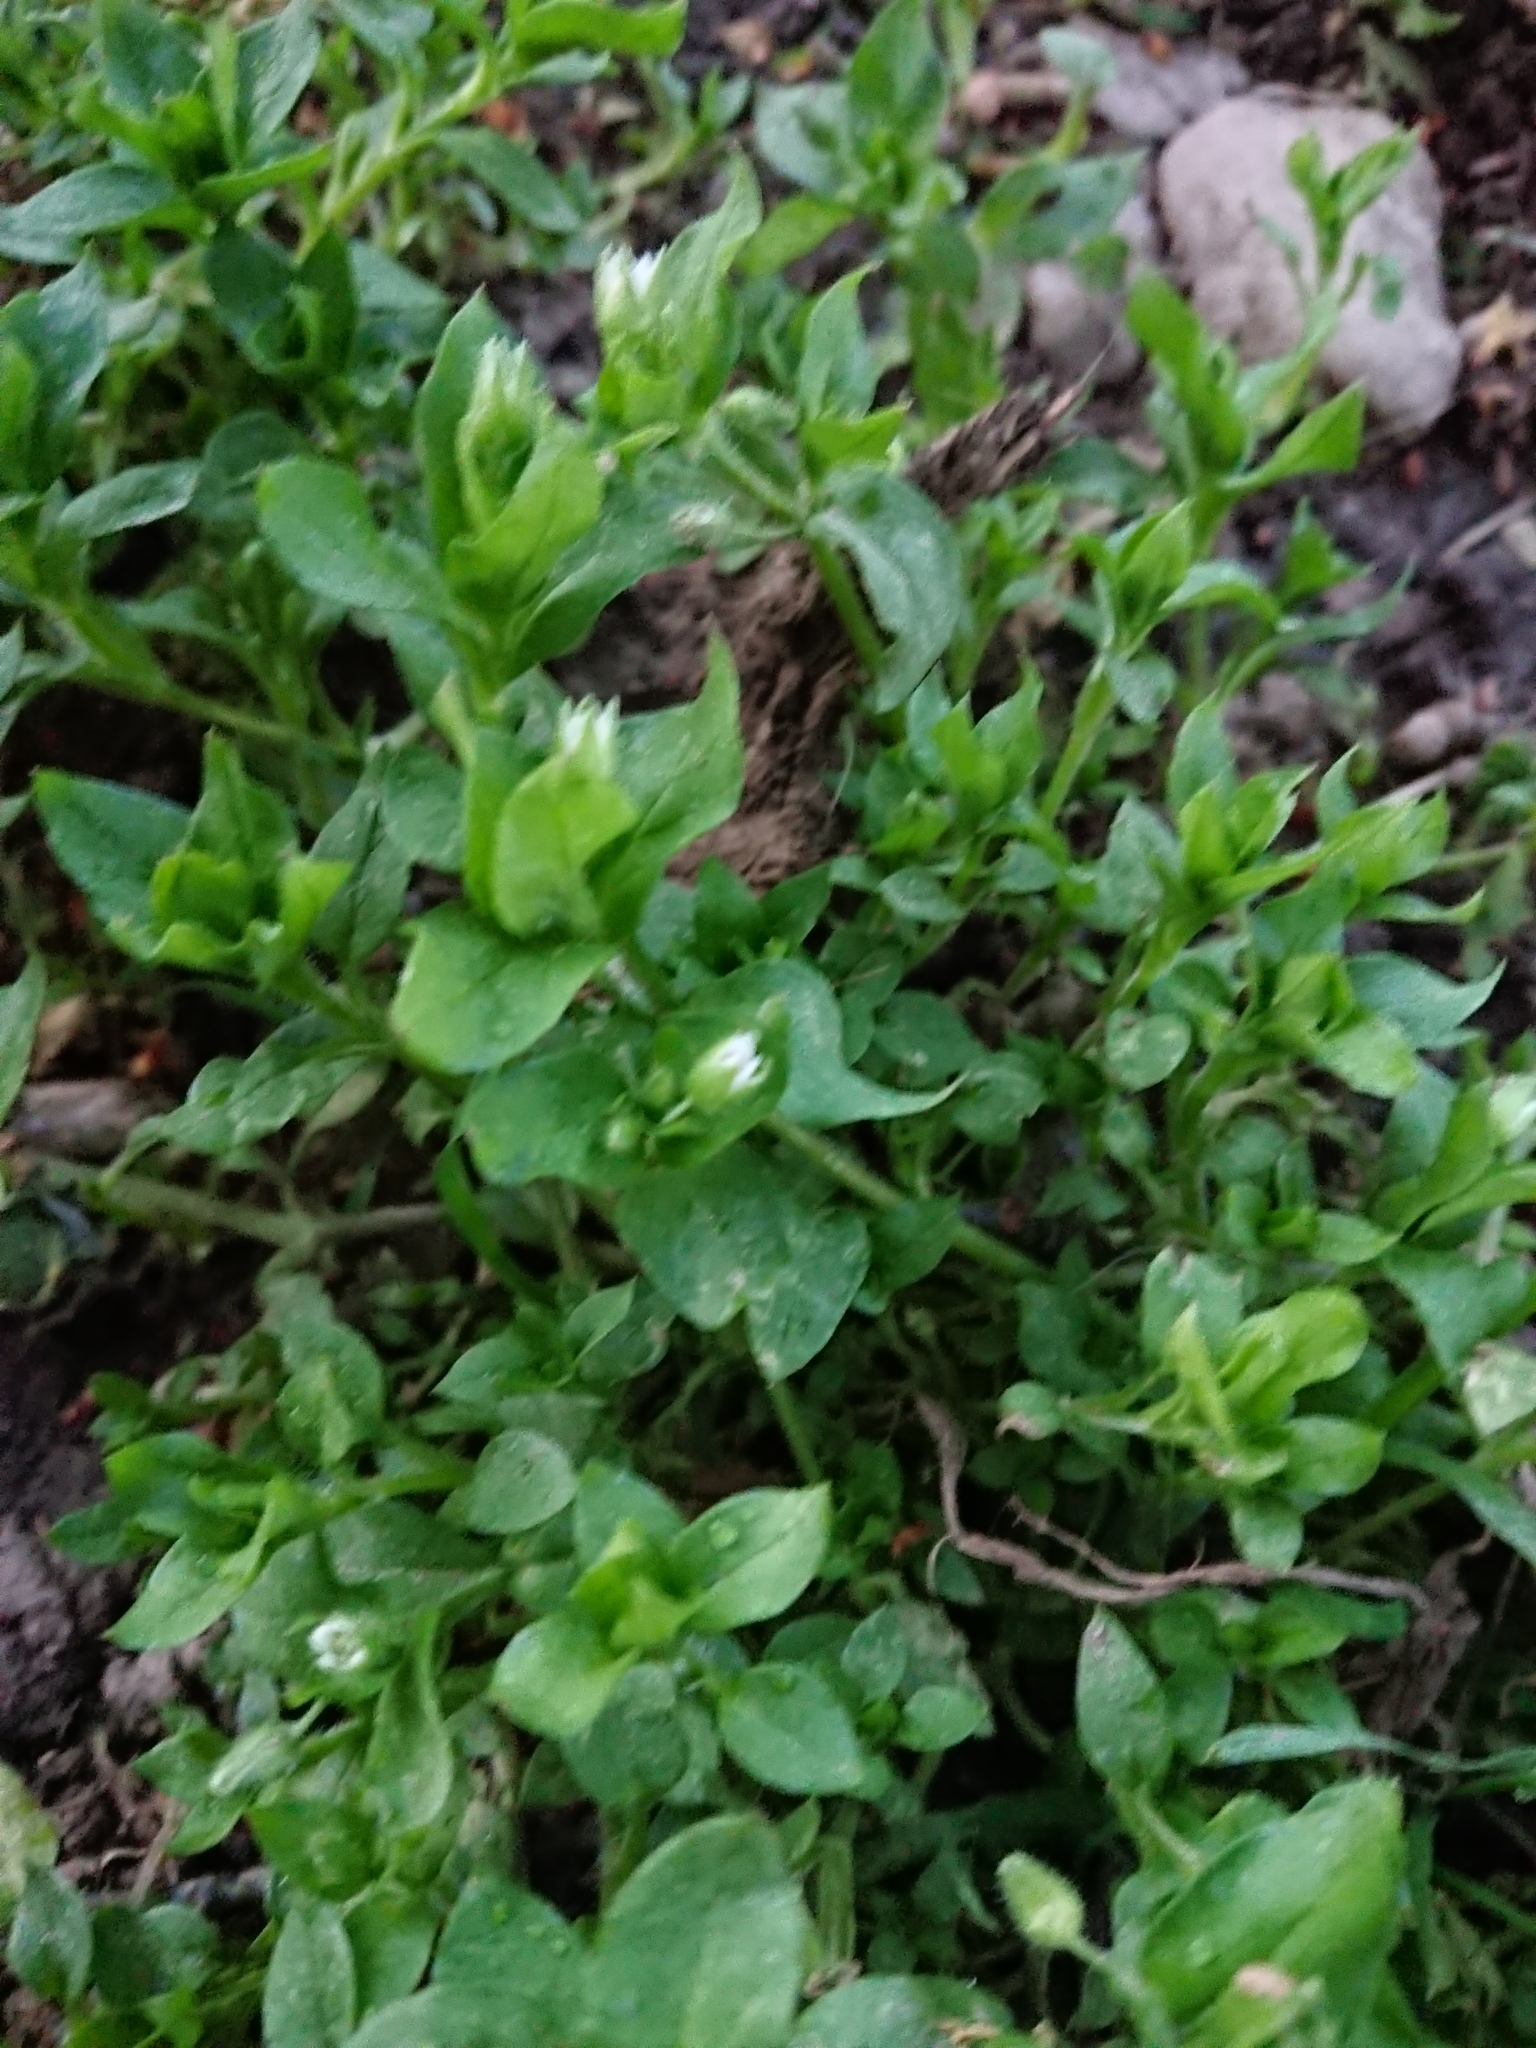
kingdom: Plantae
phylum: Tracheophyta
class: Magnoliopsida
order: Caryophyllales
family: Caryophyllaceae
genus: Stellaria
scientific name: Stellaria media
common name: Common chickweed
